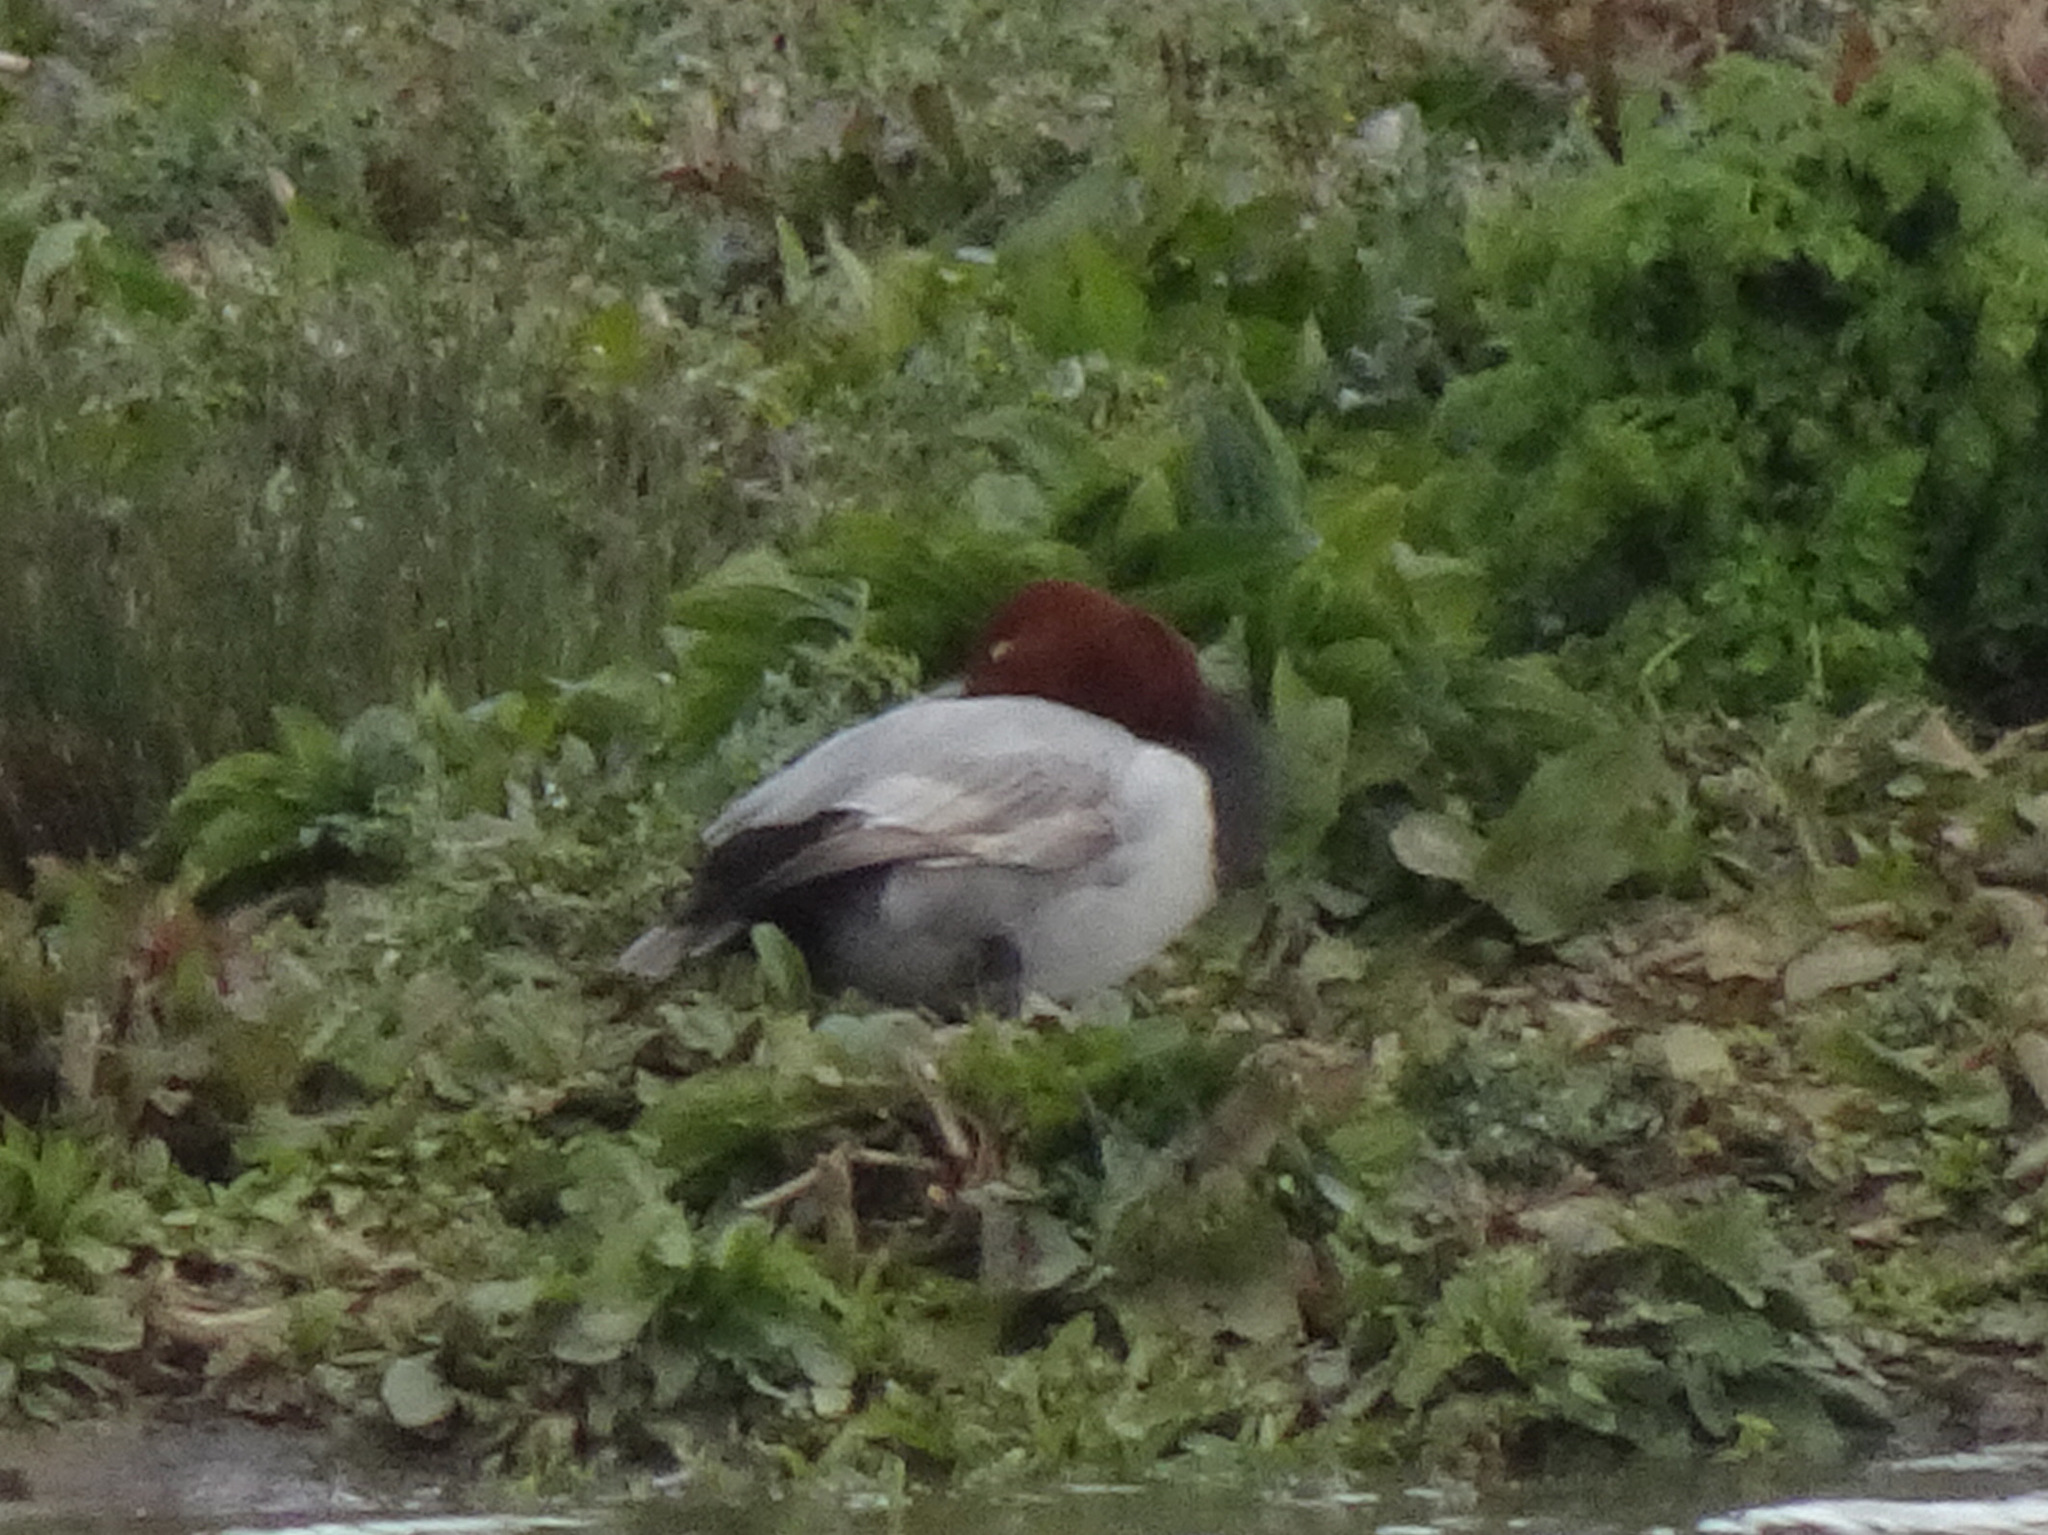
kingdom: Animalia
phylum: Chordata
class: Aves
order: Anseriformes
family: Anatidae
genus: Aythya
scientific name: Aythya ferina
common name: Common pochard
